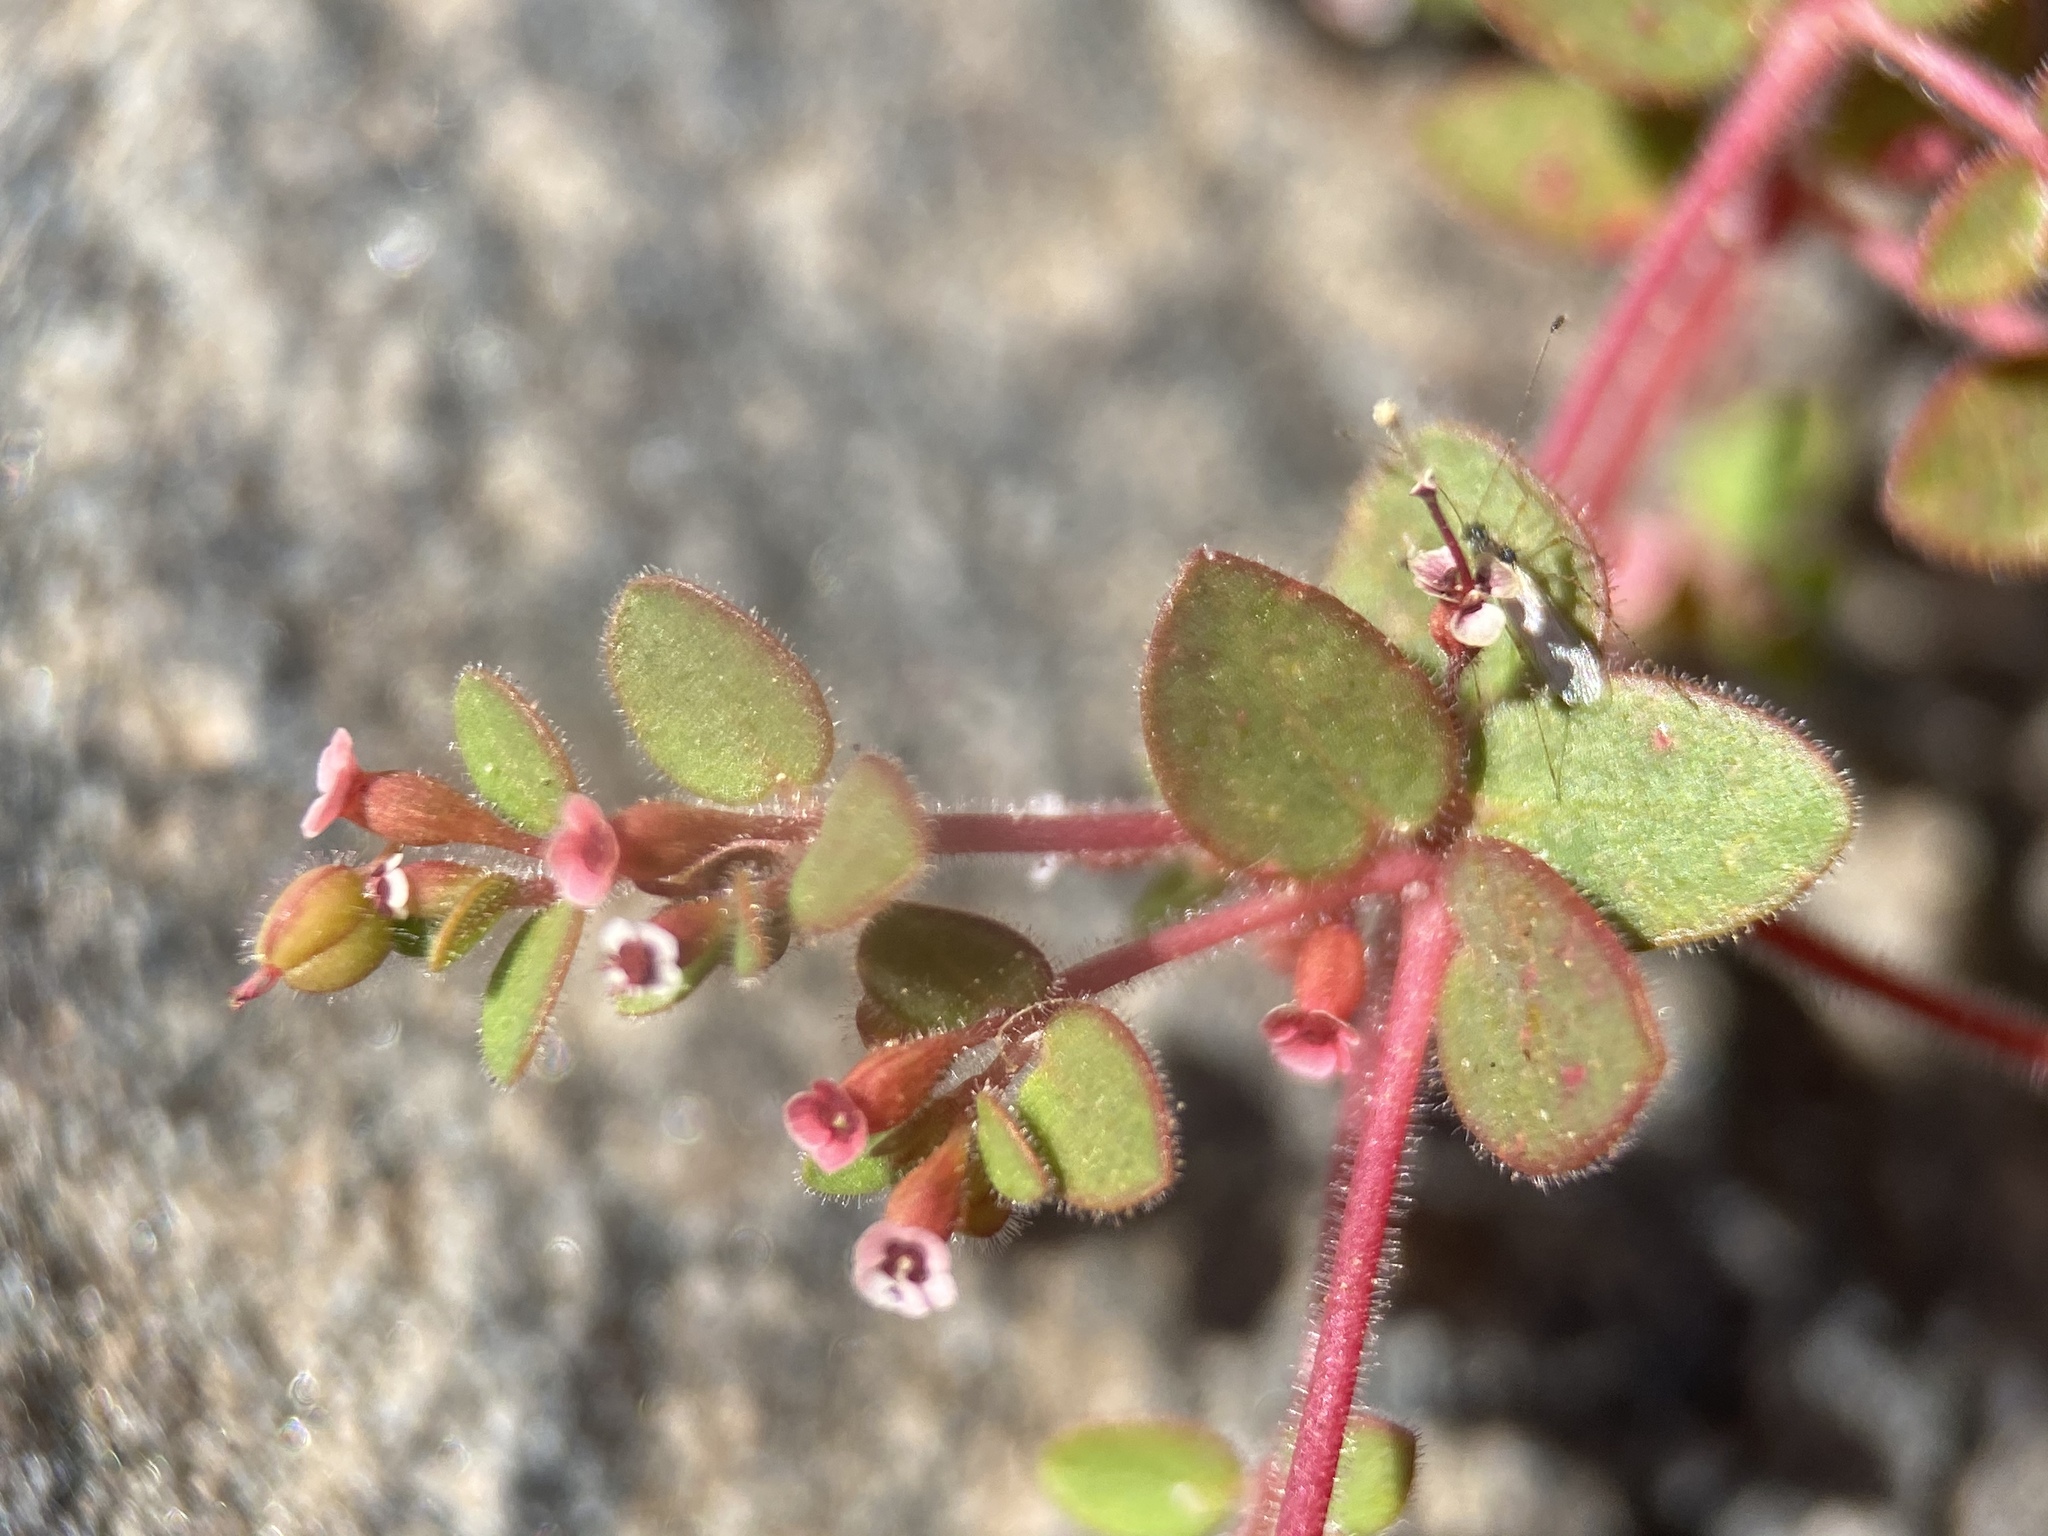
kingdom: Plantae
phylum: Tracheophyta
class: Magnoliopsida
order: Malpighiales
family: Euphorbiaceae
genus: Euphorbia
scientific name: Euphorbia arizonica
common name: Arizona spurge
